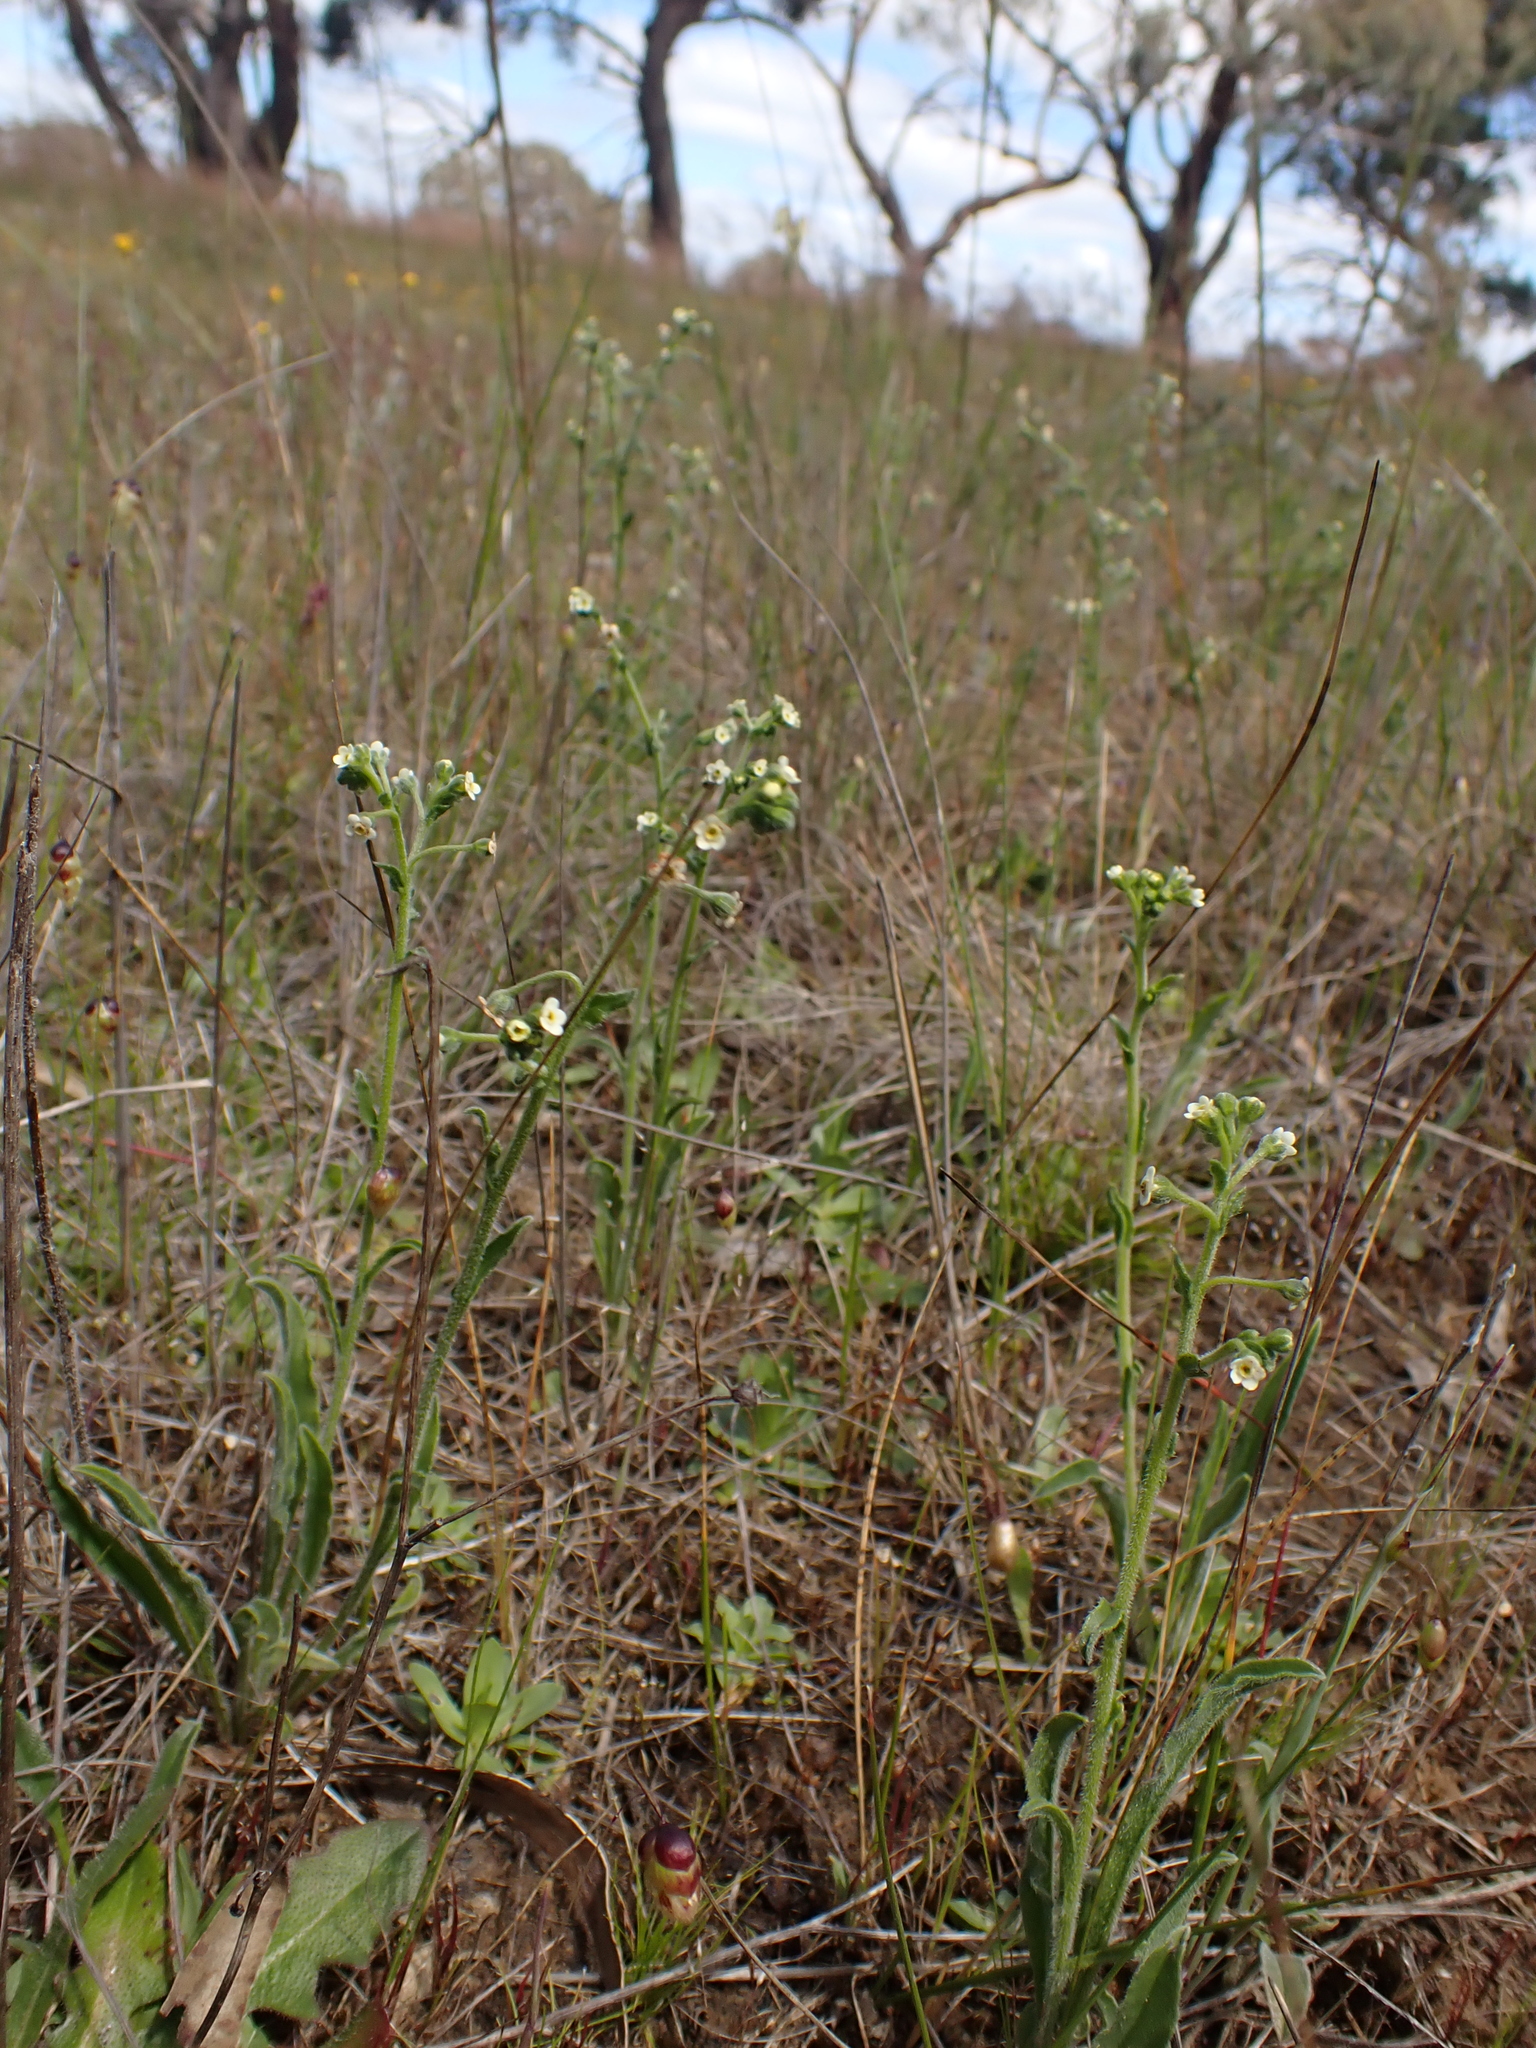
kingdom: Plantae
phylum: Tracheophyta
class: Magnoliopsida
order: Boraginales
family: Boraginaceae
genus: Hackelia
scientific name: Hackelia suaveolens
